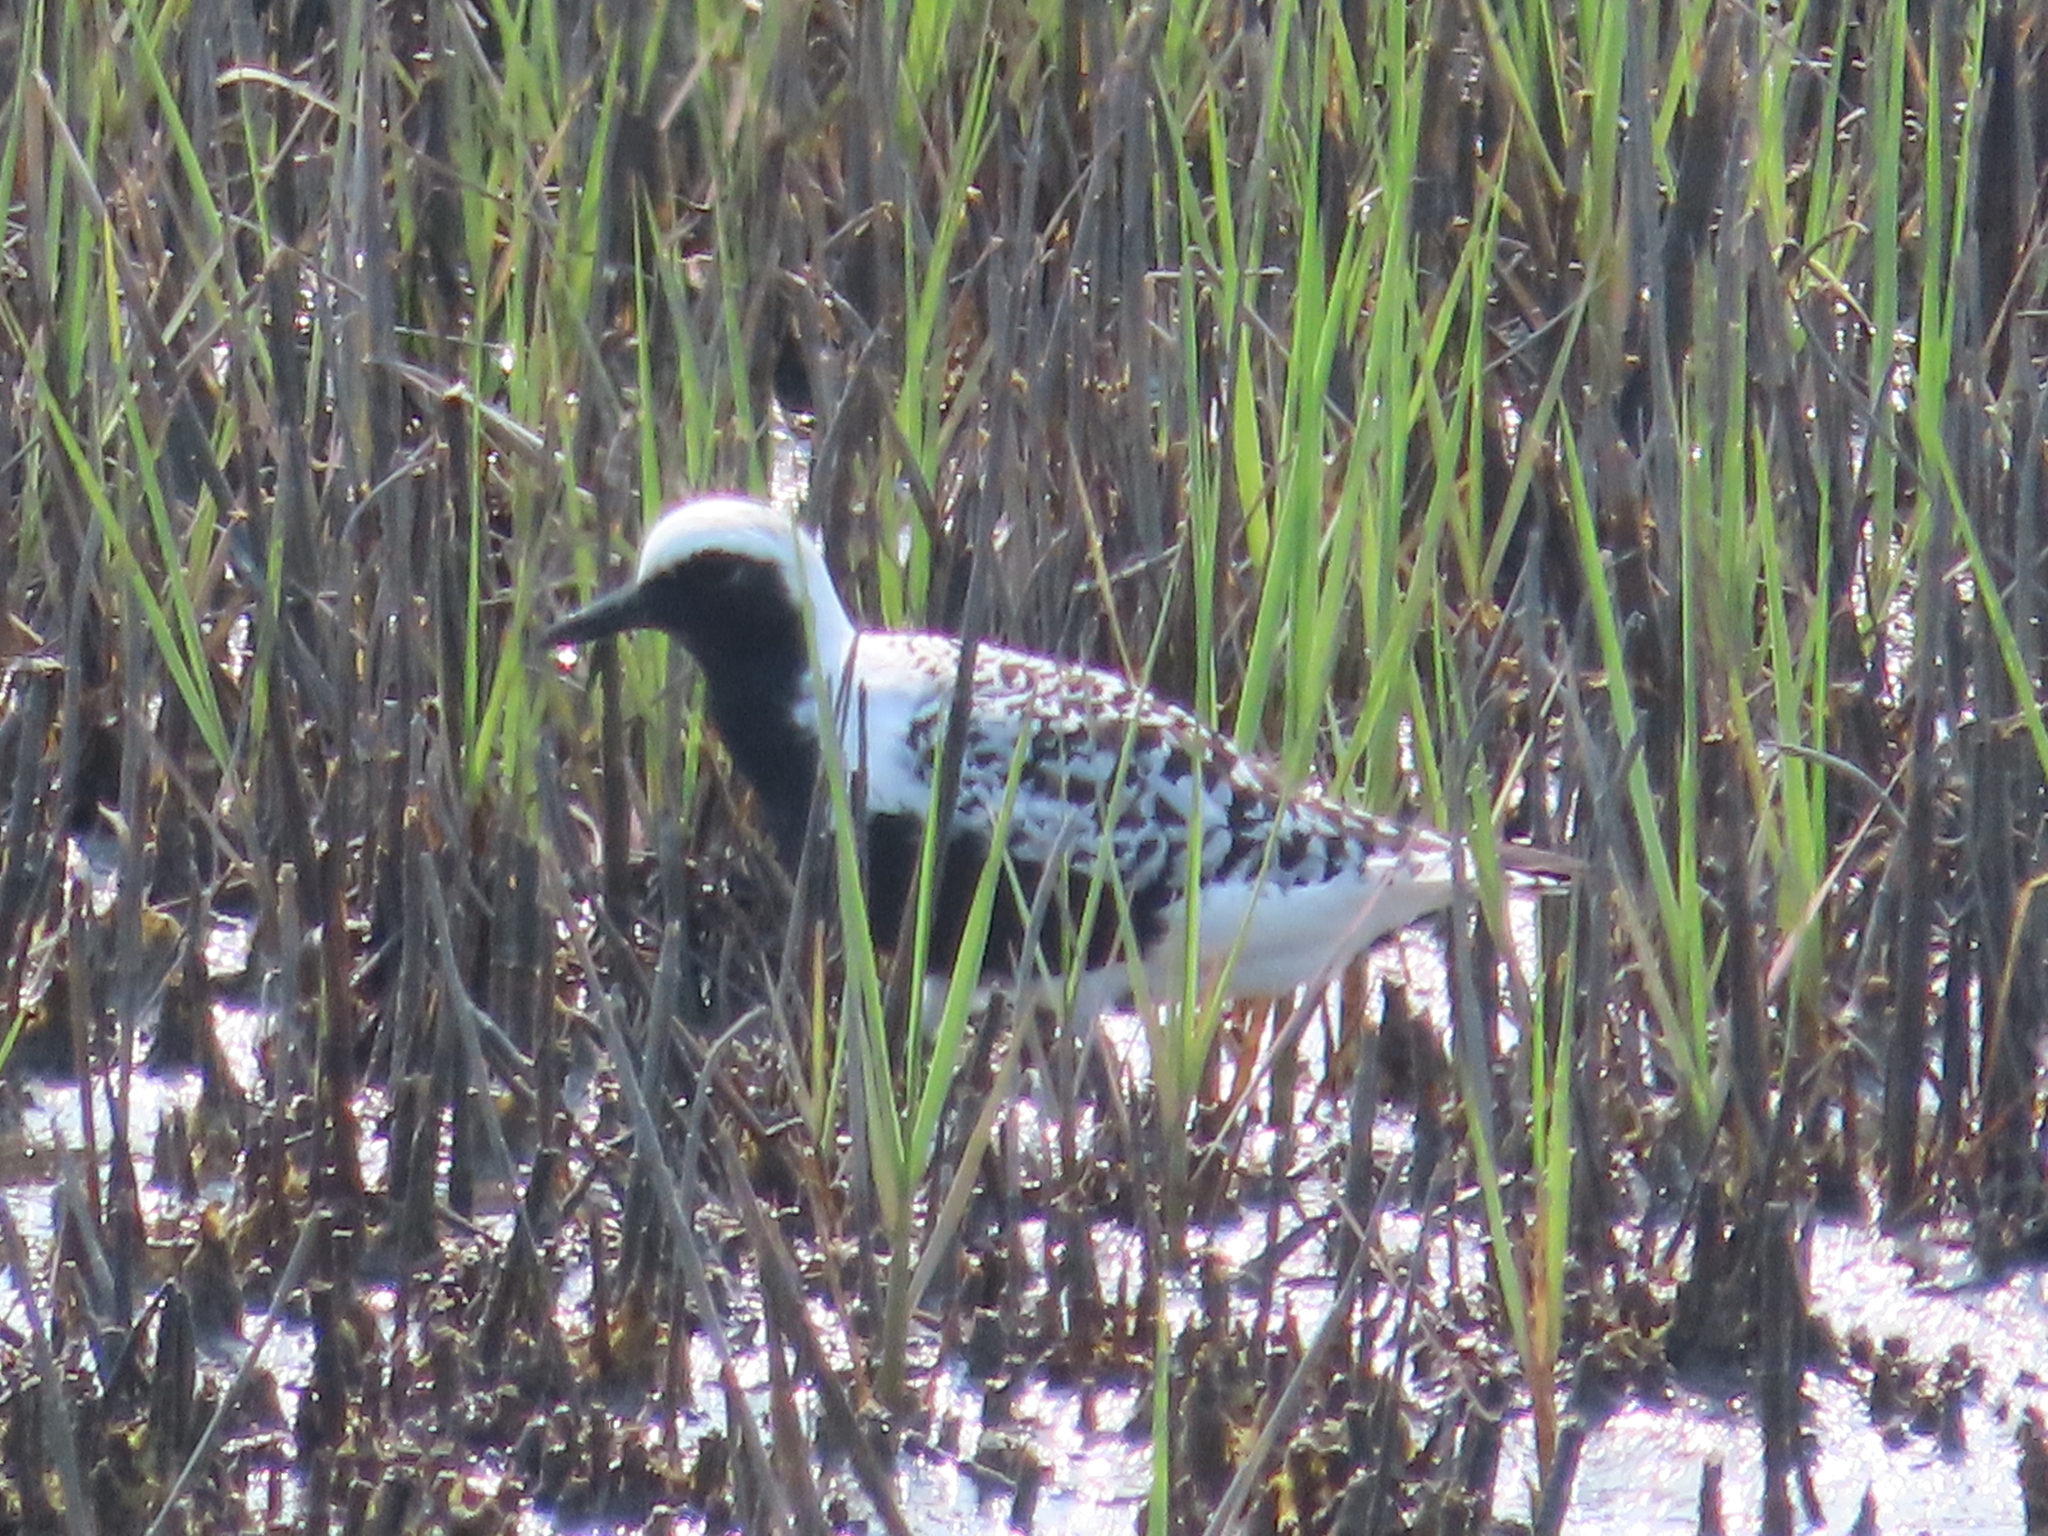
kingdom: Animalia
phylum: Chordata
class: Aves
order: Charadriiformes
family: Charadriidae
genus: Pluvialis
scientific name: Pluvialis squatarola
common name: Grey plover
